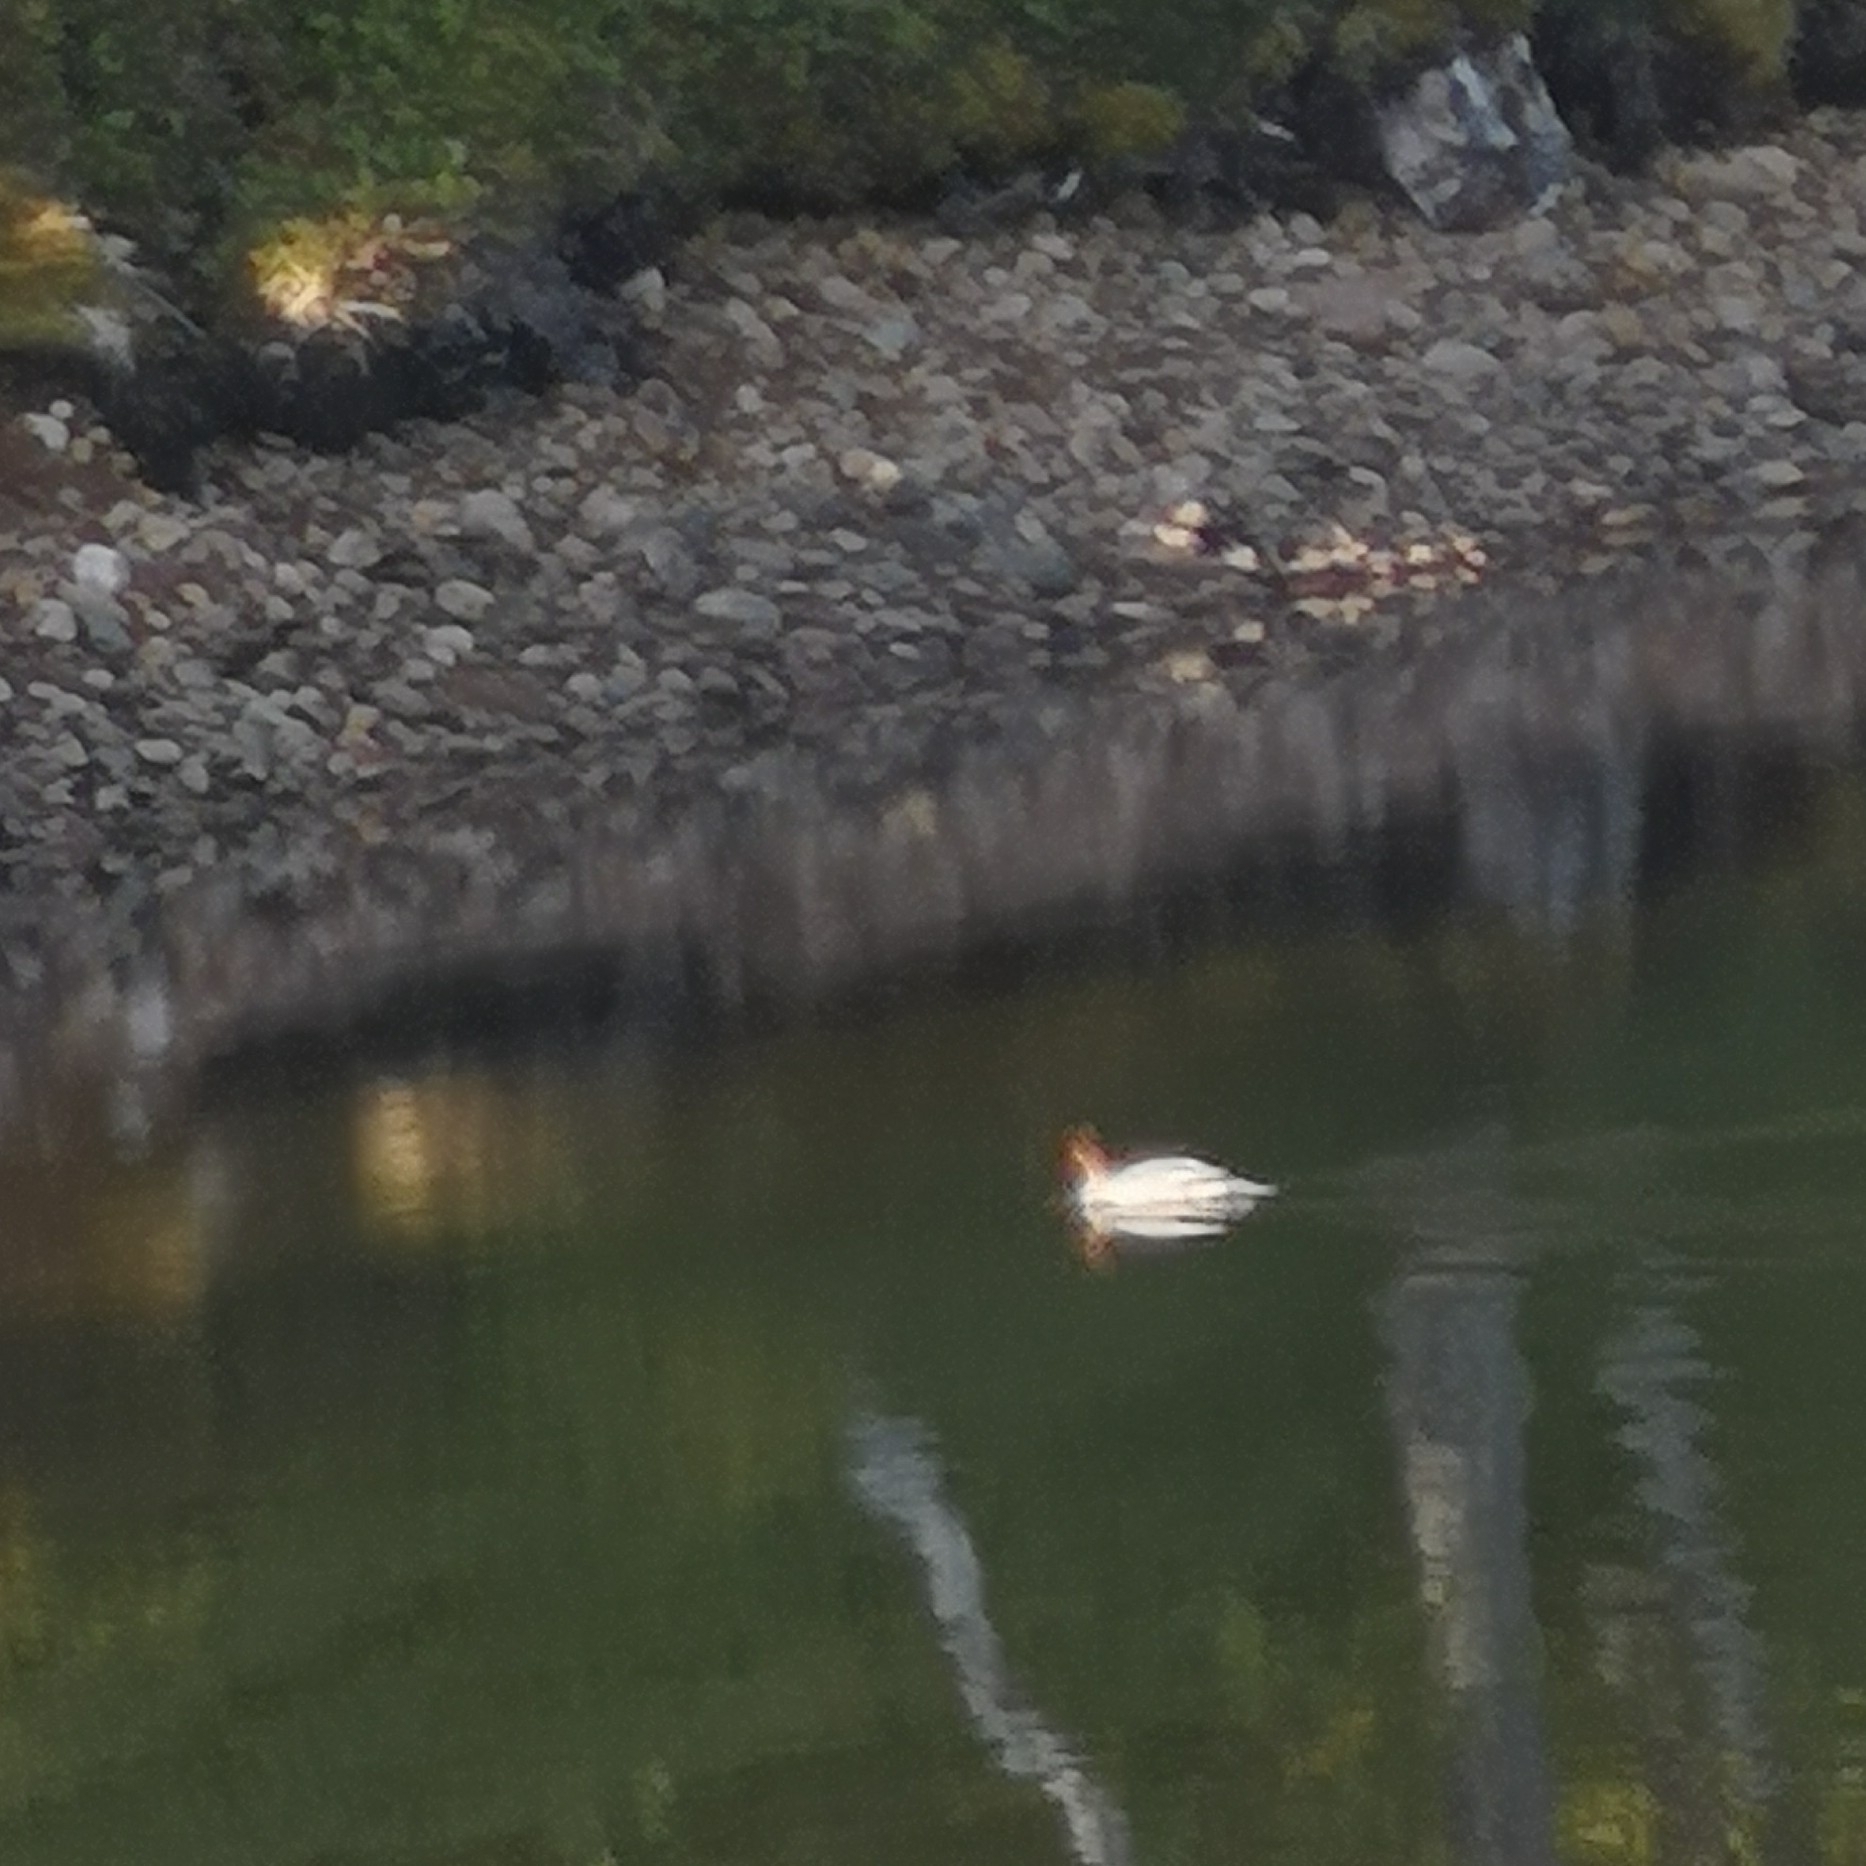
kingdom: Animalia
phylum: Chordata
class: Aves
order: Anseriformes
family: Anatidae
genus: Mergus
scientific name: Mergus merganser
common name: Common merganser
